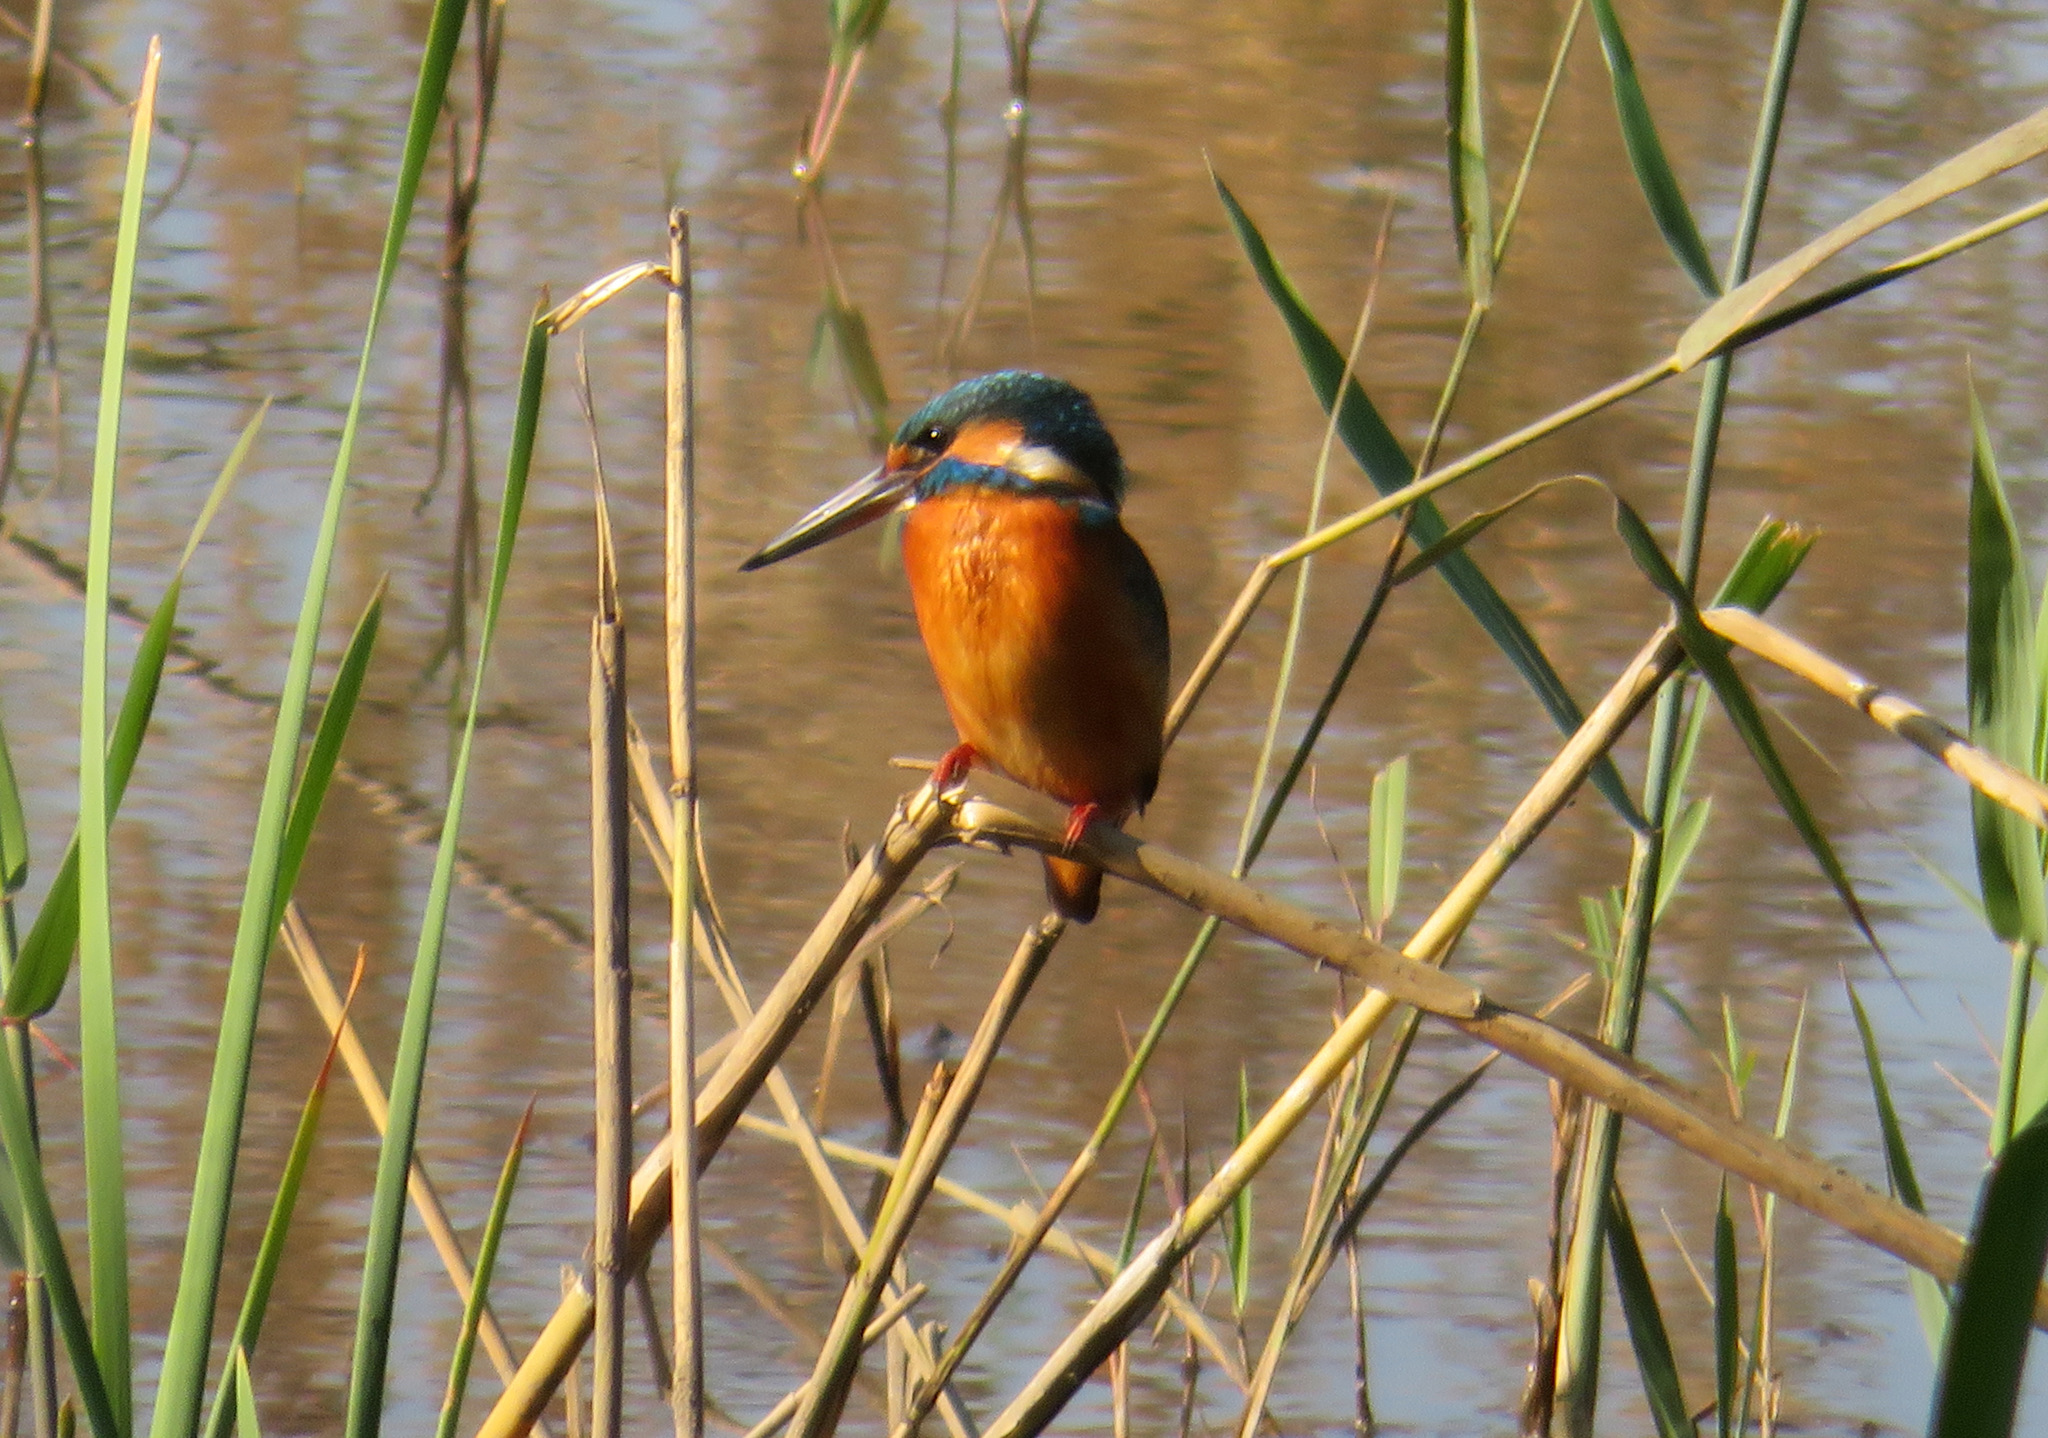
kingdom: Animalia
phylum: Chordata
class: Aves
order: Coraciiformes
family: Alcedinidae
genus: Alcedo
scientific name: Alcedo atthis
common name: Common kingfisher
